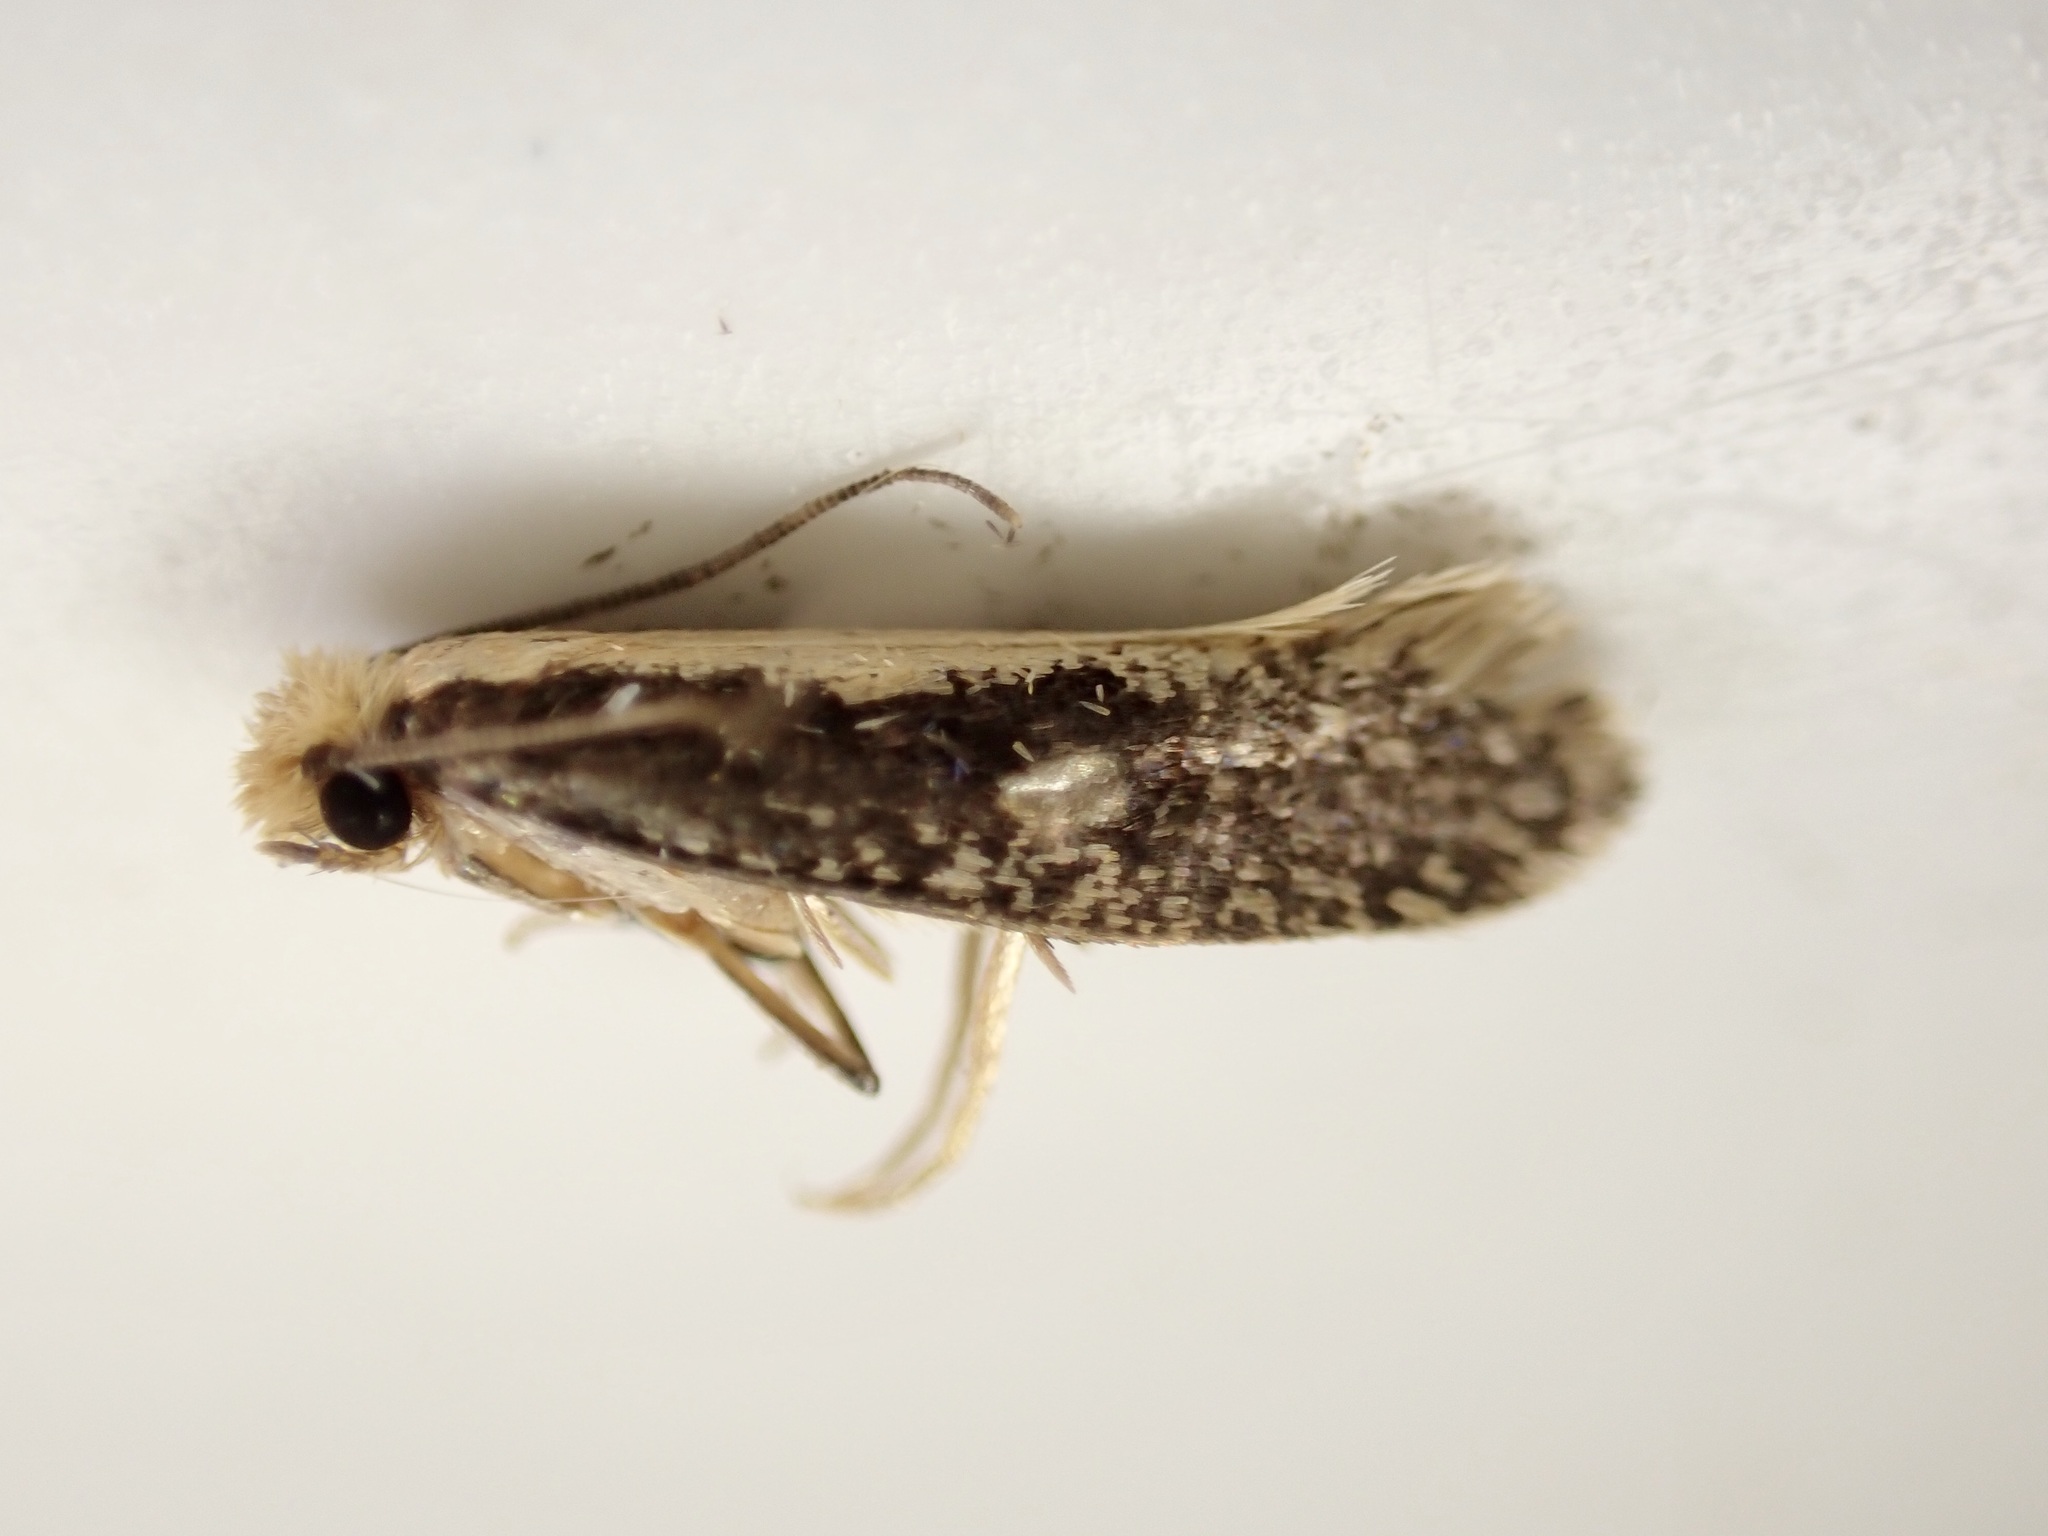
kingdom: Animalia
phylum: Arthropoda
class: Insecta
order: Lepidoptera
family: Tineidae
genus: Monopis
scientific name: Monopis crocicapitella
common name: Moth
